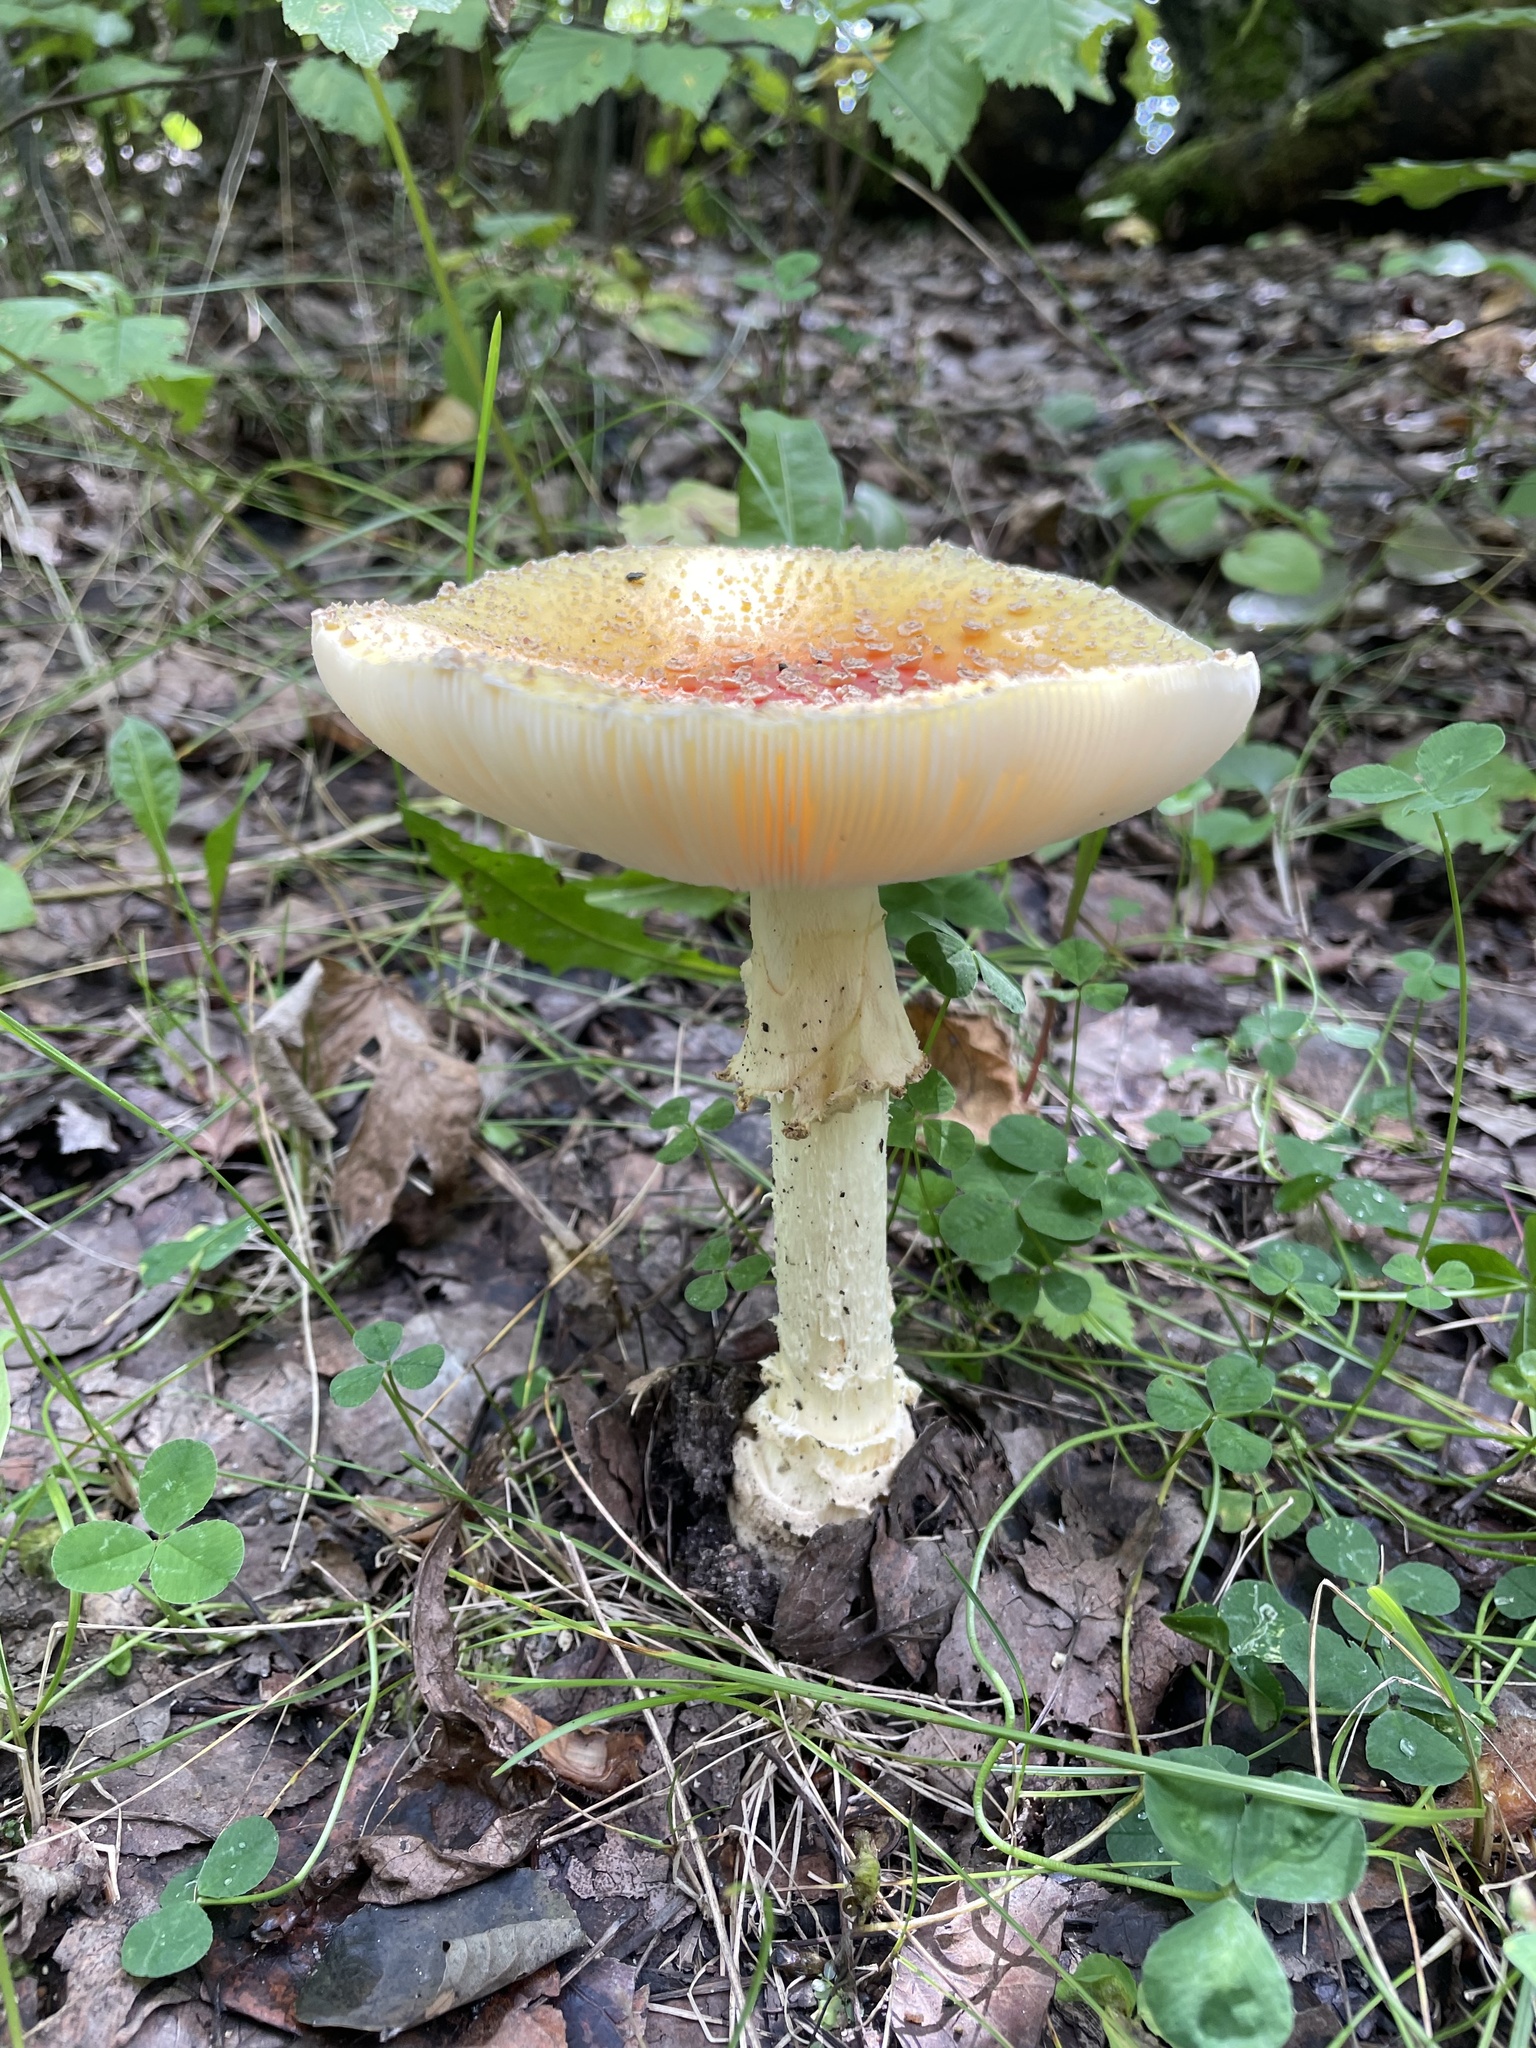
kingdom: Fungi
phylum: Basidiomycota
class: Agaricomycetes
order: Agaricales
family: Amanitaceae
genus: Amanita
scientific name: Amanita muscaria
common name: Fly agaric
